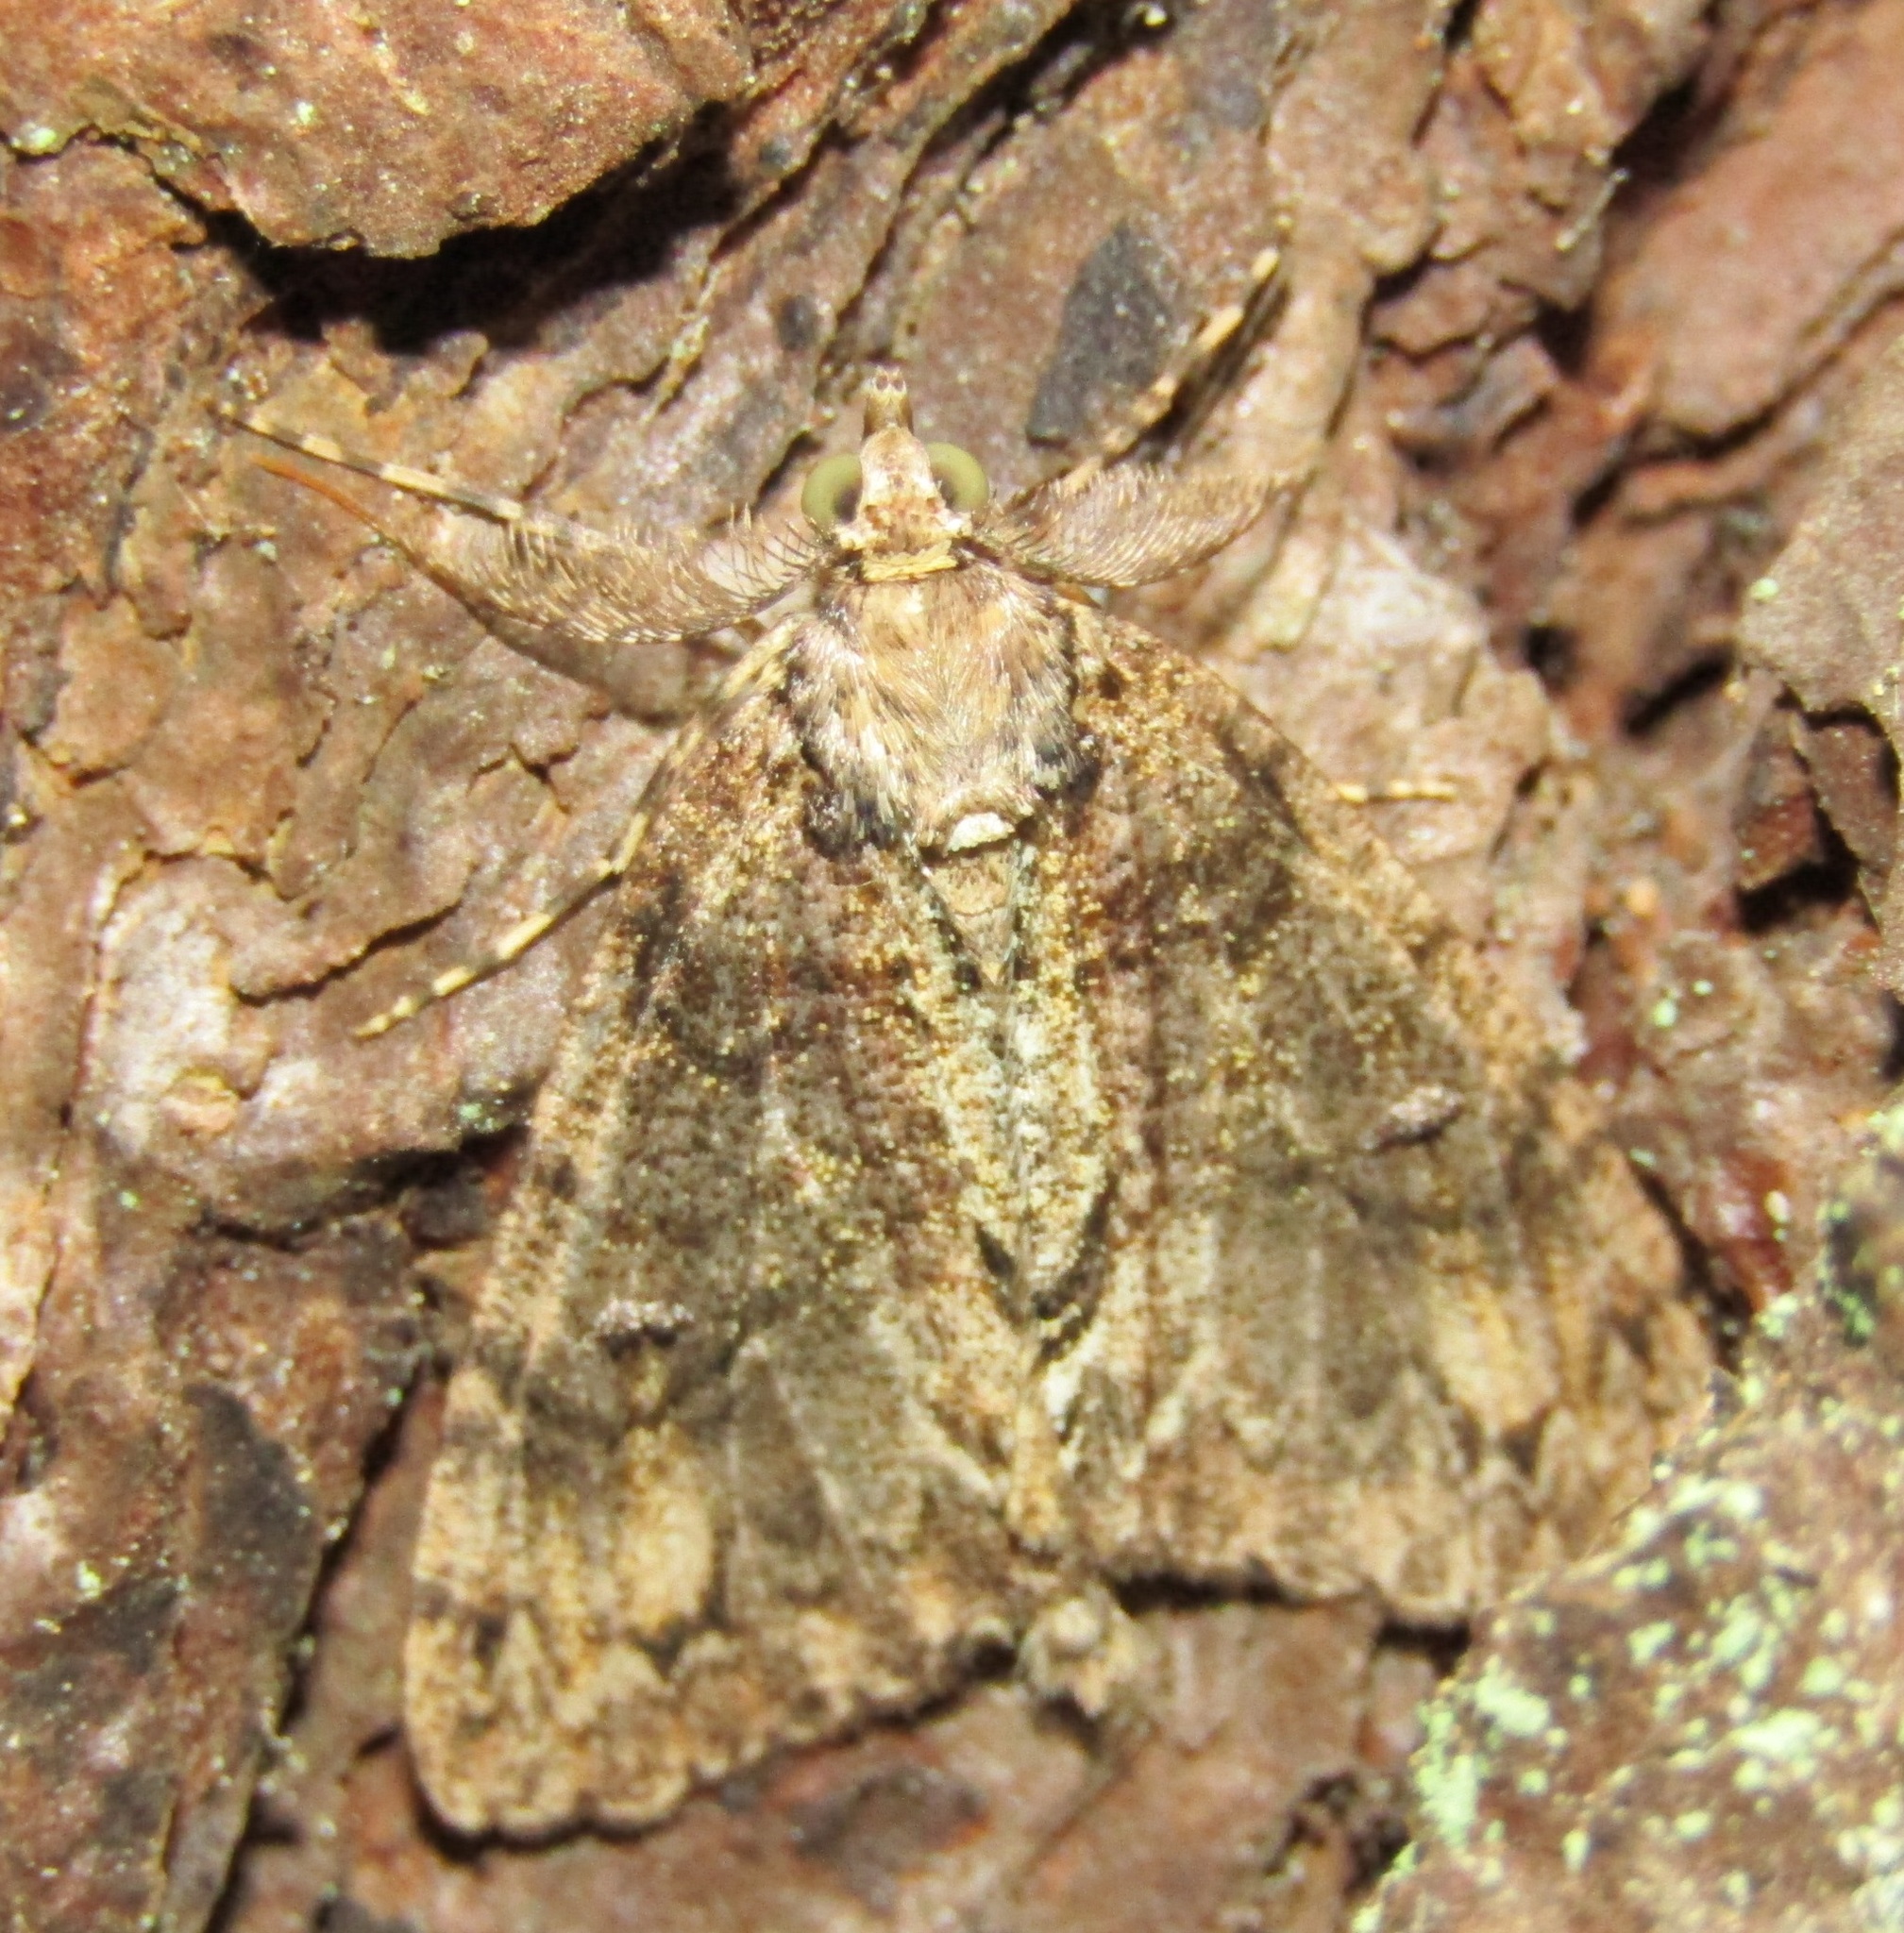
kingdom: Animalia
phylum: Arthropoda
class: Insecta
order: Lepidoptera
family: Geometridae
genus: Pseudocoremia
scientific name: Pseudocoremia suavis
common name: Common forest looper
